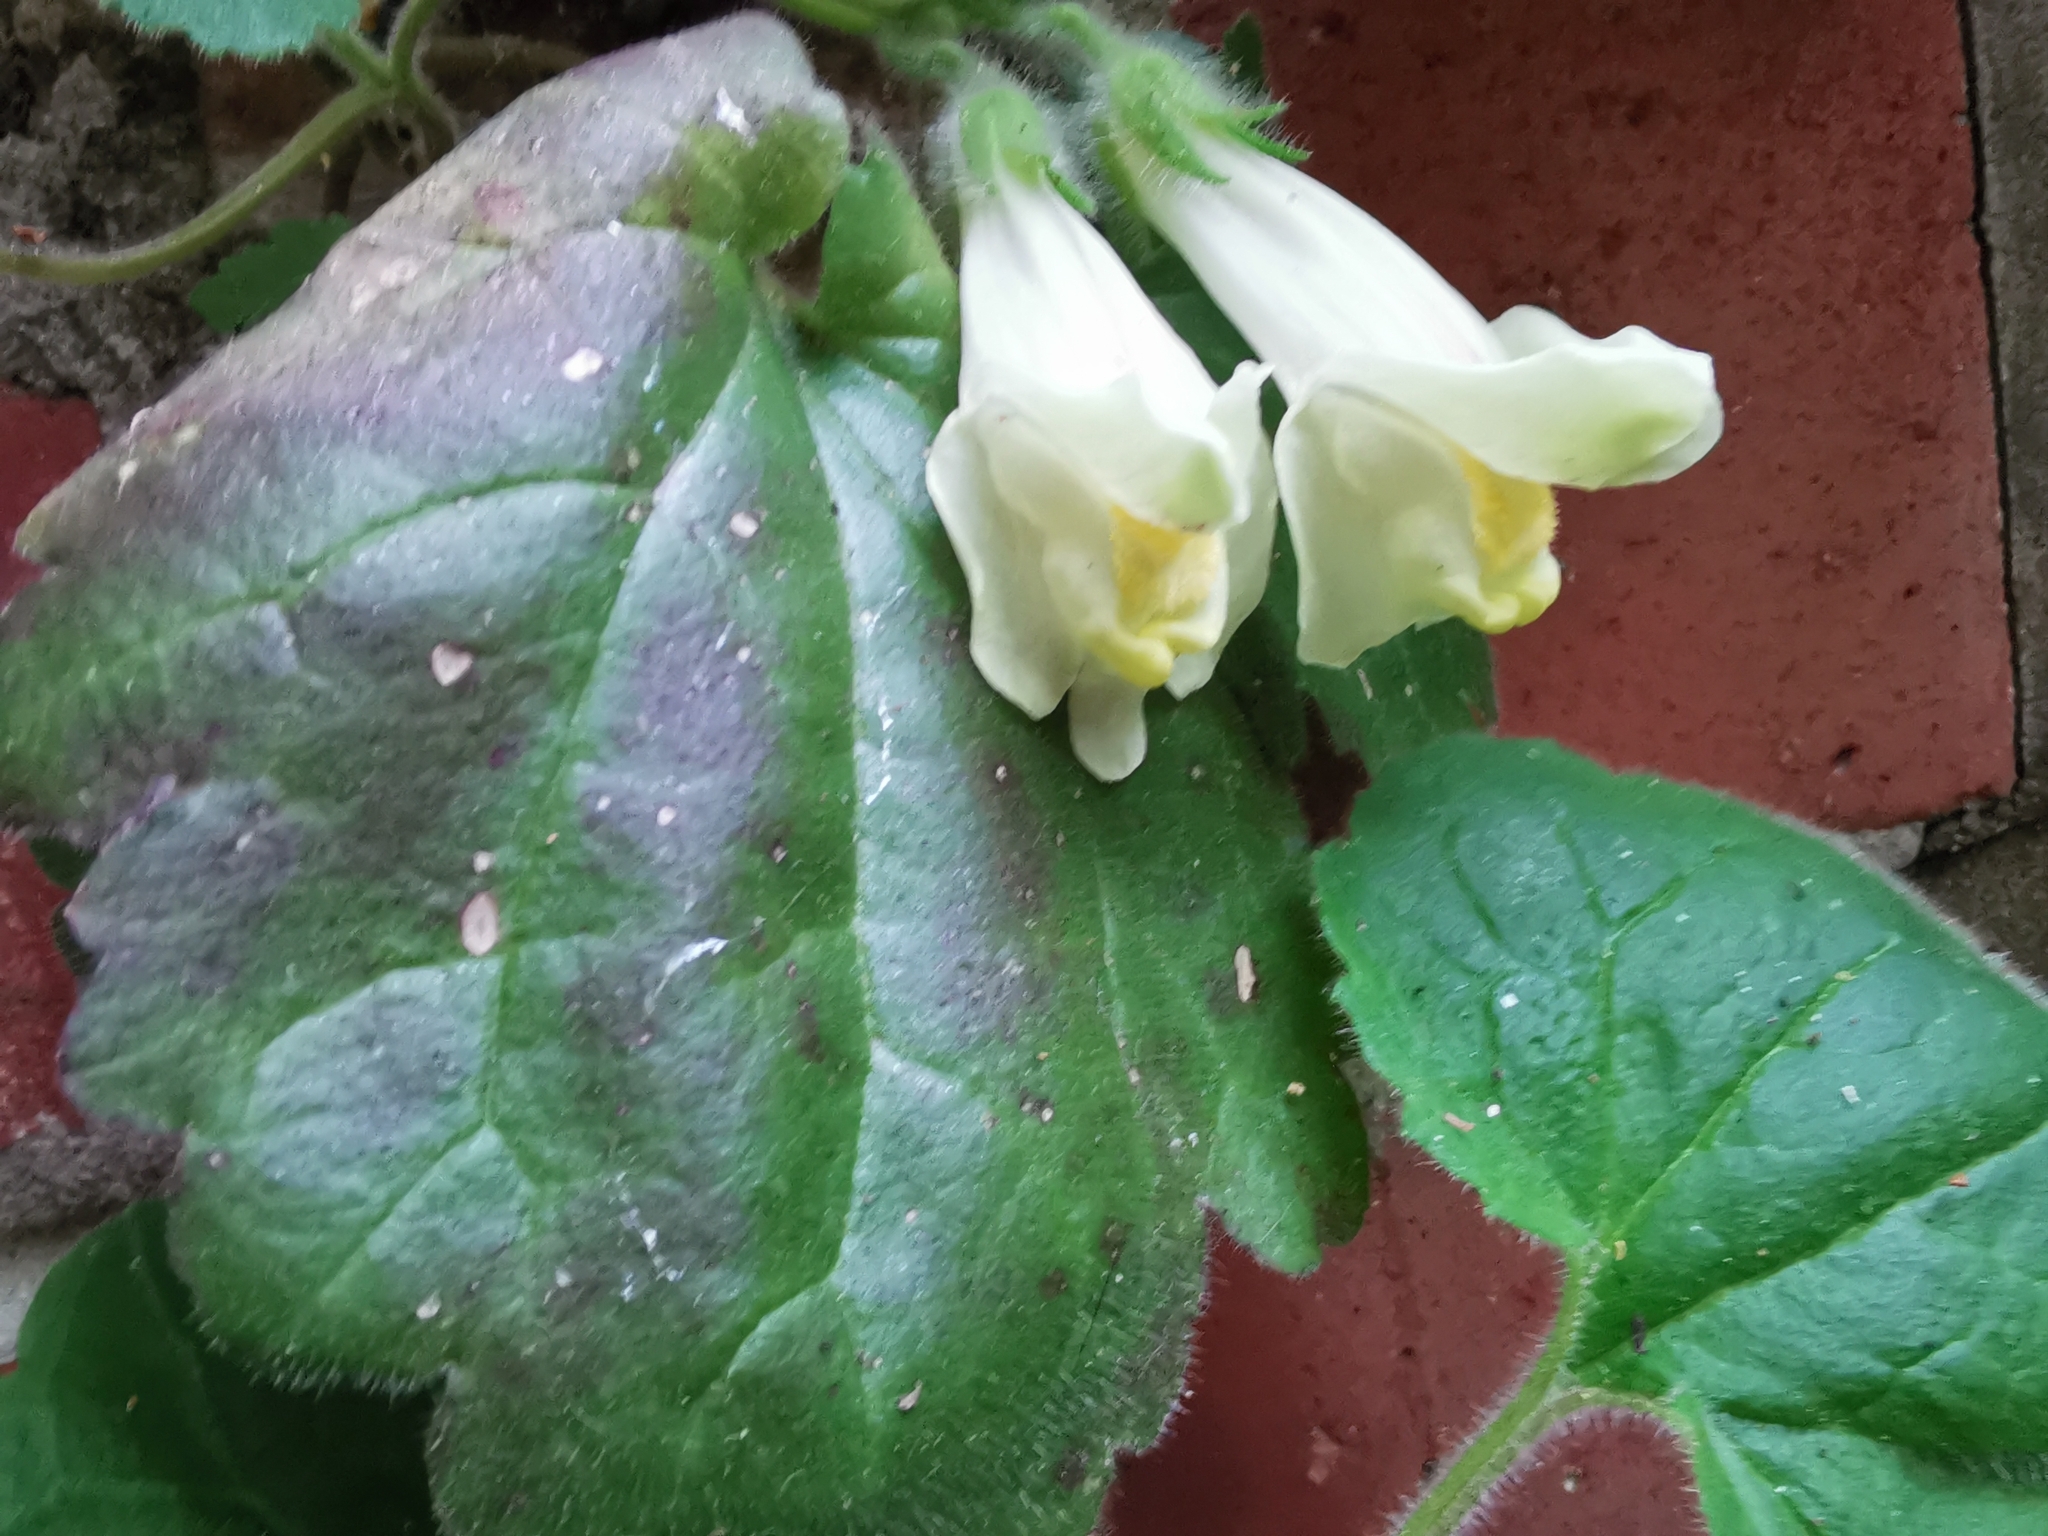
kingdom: Plantae
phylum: Tracheophyta
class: Magnoliopsida
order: Lamiales
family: Plantaginaceae
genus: Asarina
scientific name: Asarina procumbens
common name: Trailing snapdragon
